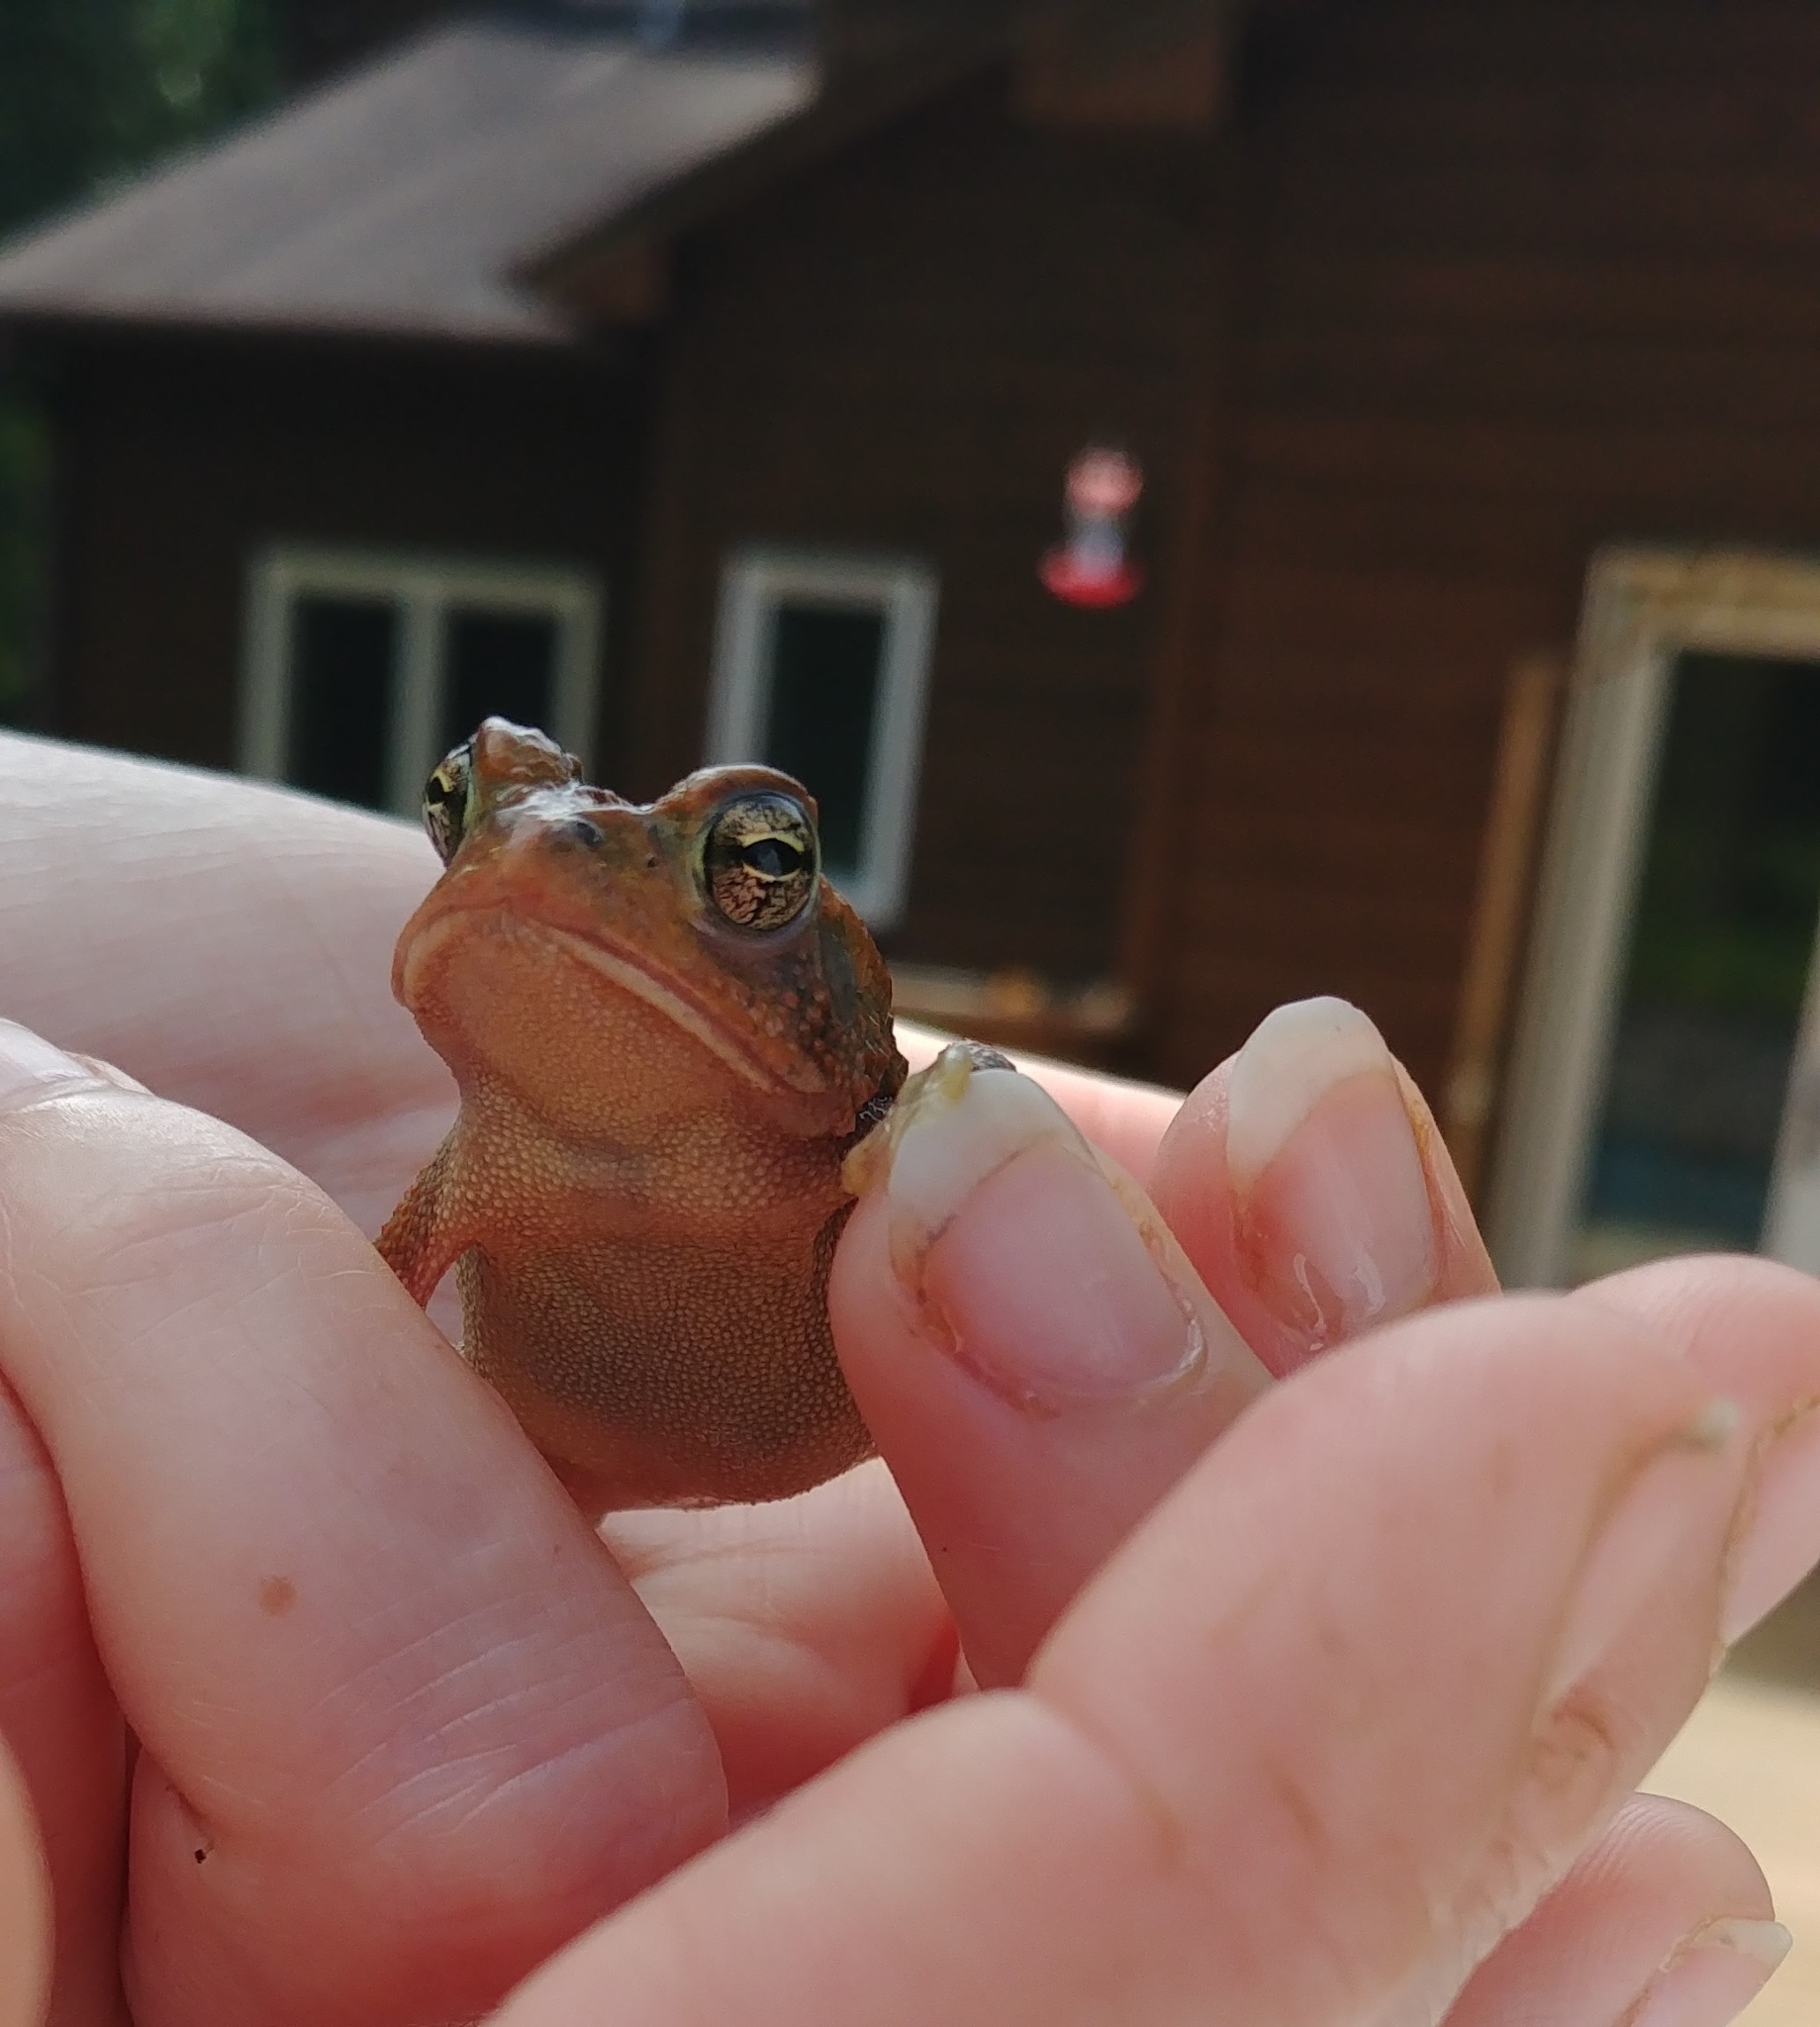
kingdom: Animalia
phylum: Chordata
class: Amphibia
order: Anura
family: Bufonidae
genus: Anaxyrus
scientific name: Anaxyrus terrestris
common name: Southern toad
